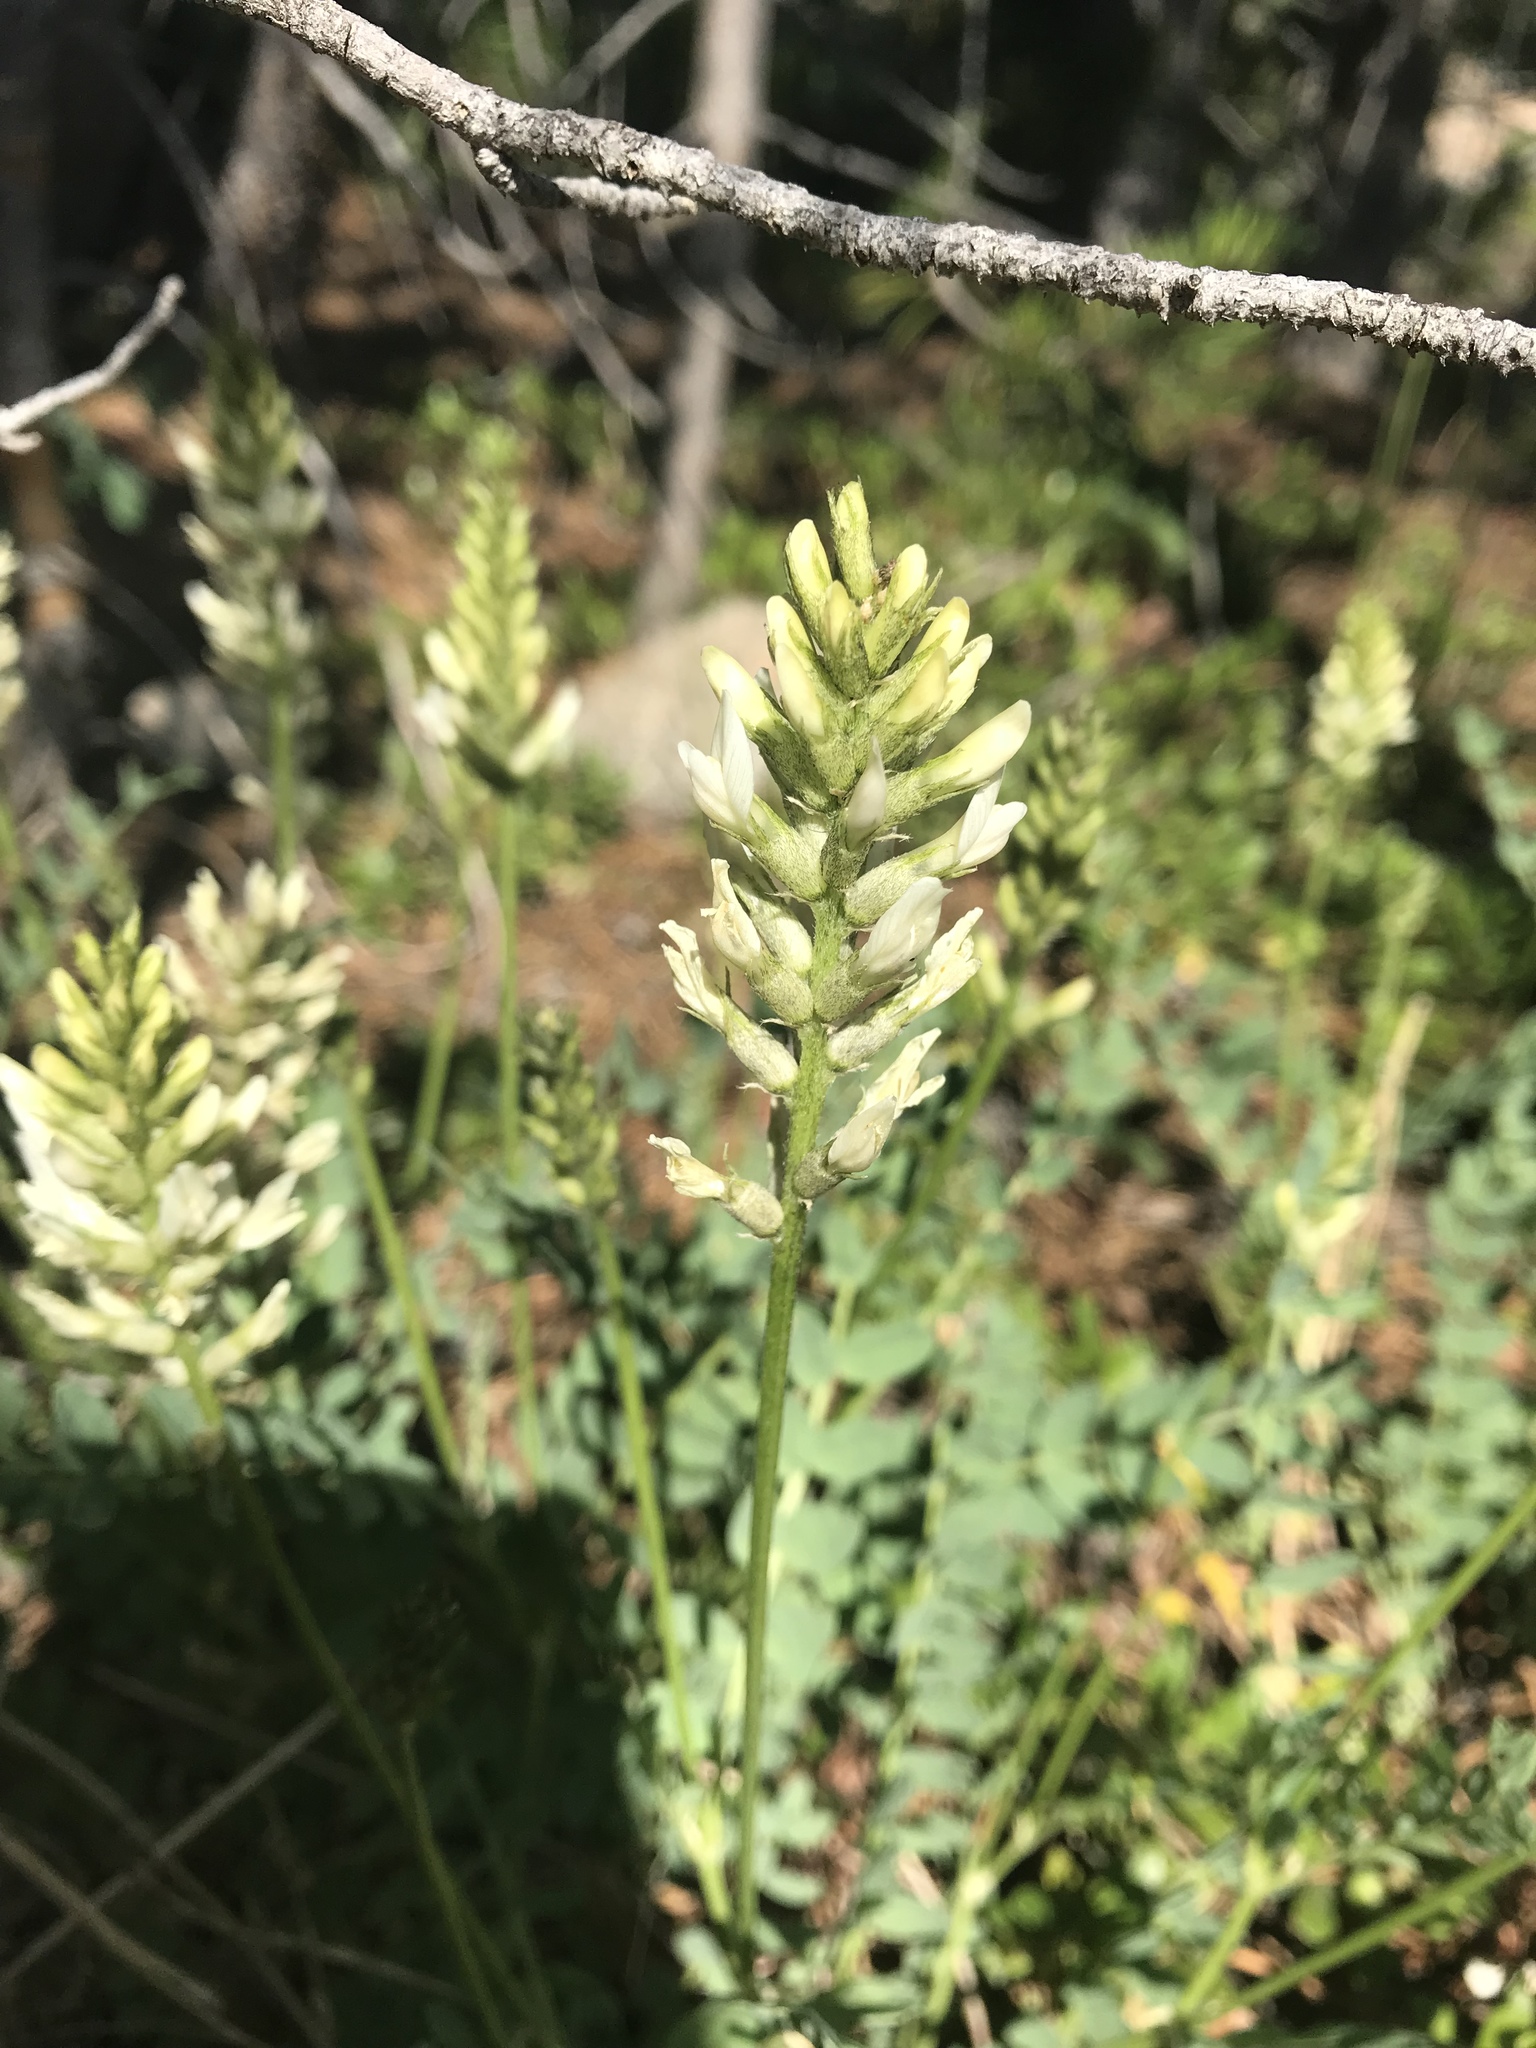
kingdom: Plantae
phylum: Tracheophyta
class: Magnoliopsida
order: Fabales
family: Fabaceae
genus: Astragalus
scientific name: Astragalus laxmannii
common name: Laxmann's milk-vetch
